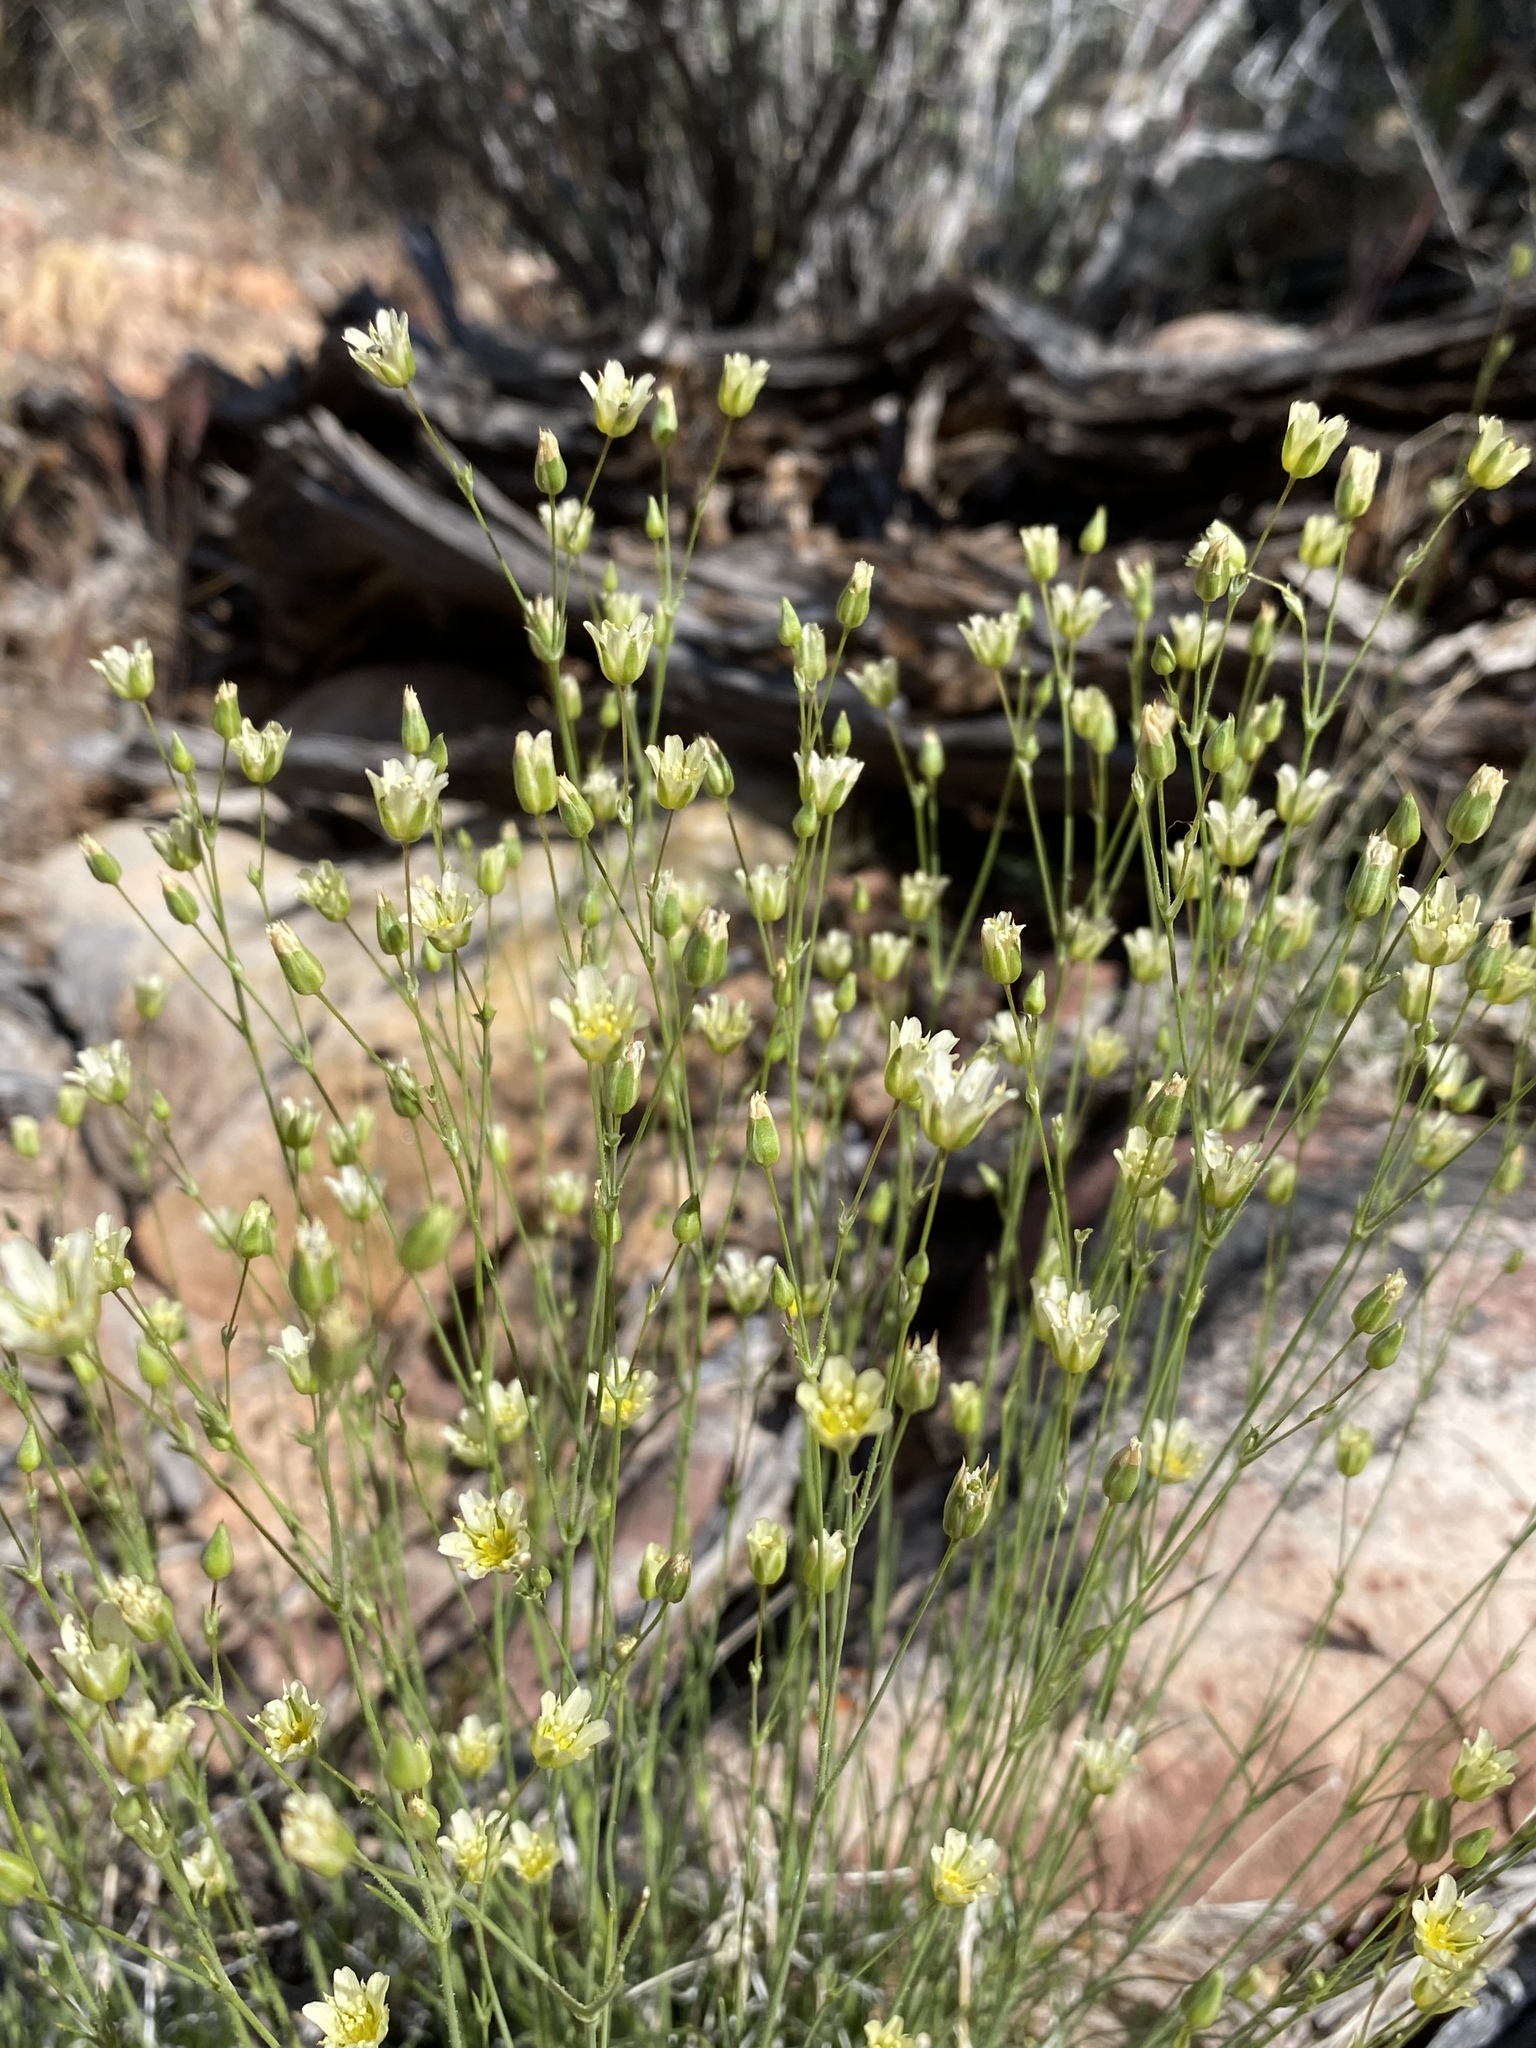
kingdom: Plantae
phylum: Tracheophyta
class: Magnoliopsida
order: Caryophyllales
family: Caryophyllaceae
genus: Eremogone
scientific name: Eremogone macradenia
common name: Mohave sandwort
